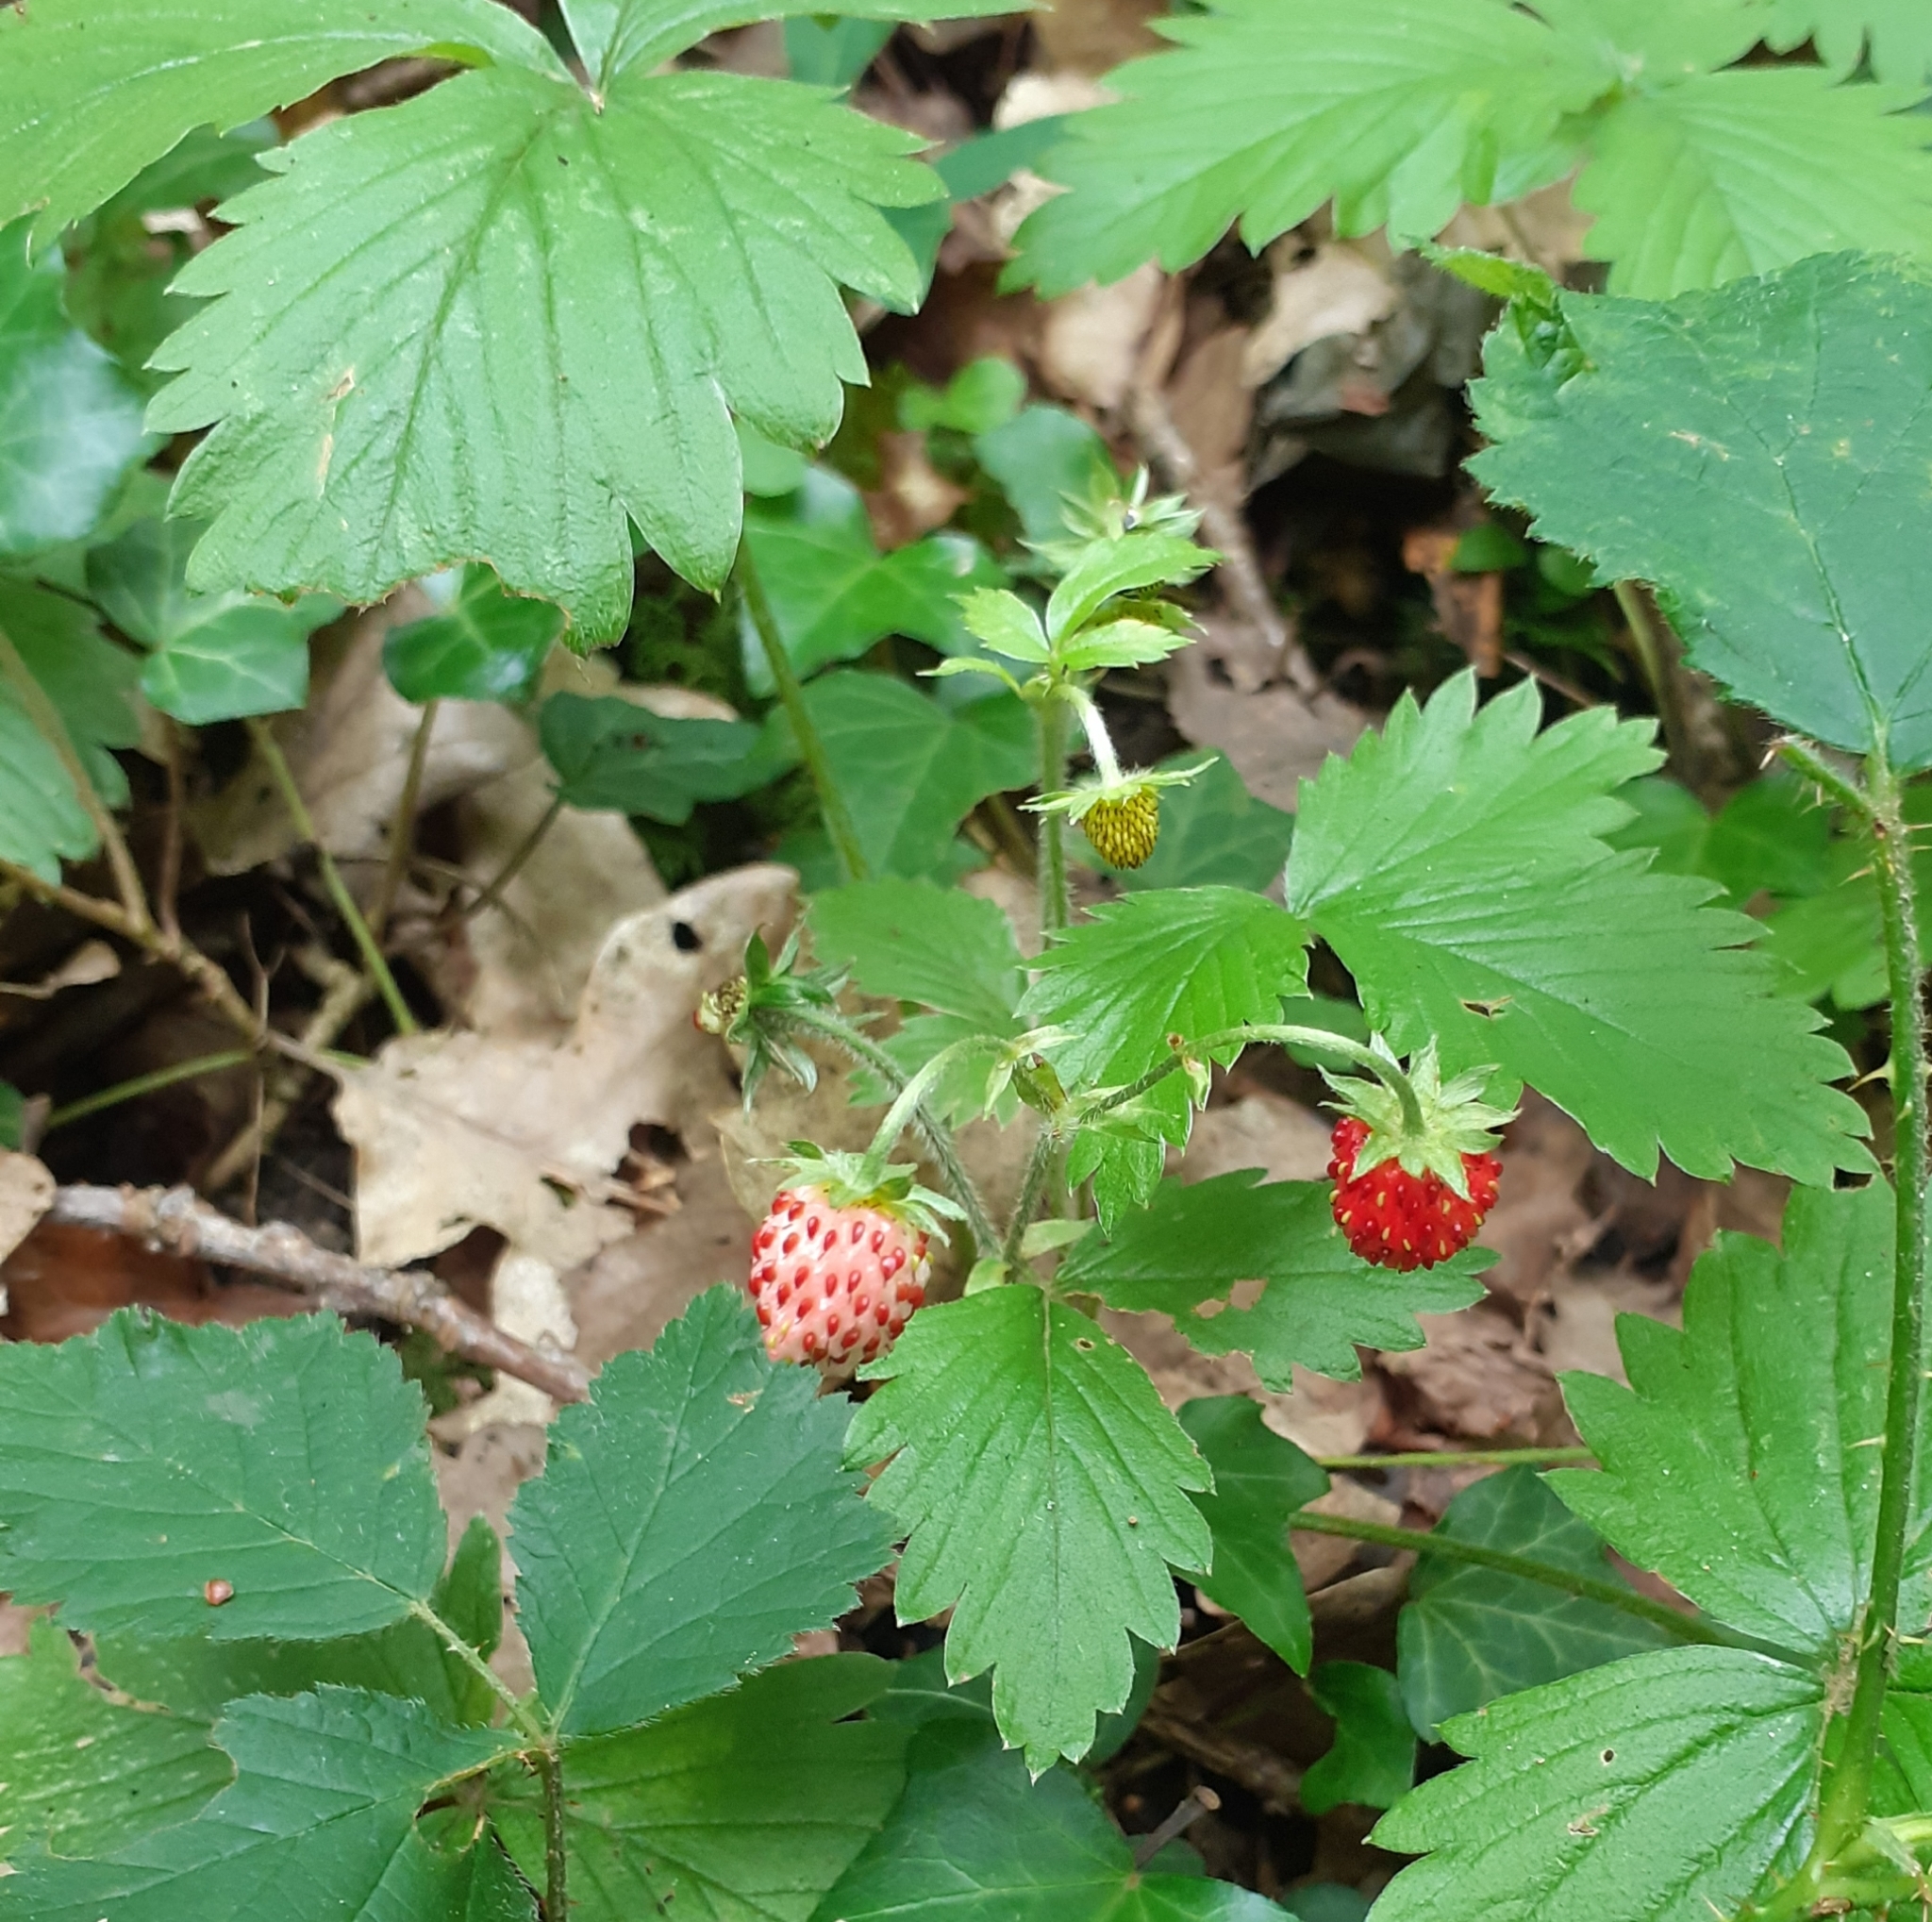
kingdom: Plantae
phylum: Tracheophyta
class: Magnoliopsida
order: Rosales
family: Rosaceae
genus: Fragaria
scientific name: Fragaria vesca
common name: Wild strawberry
